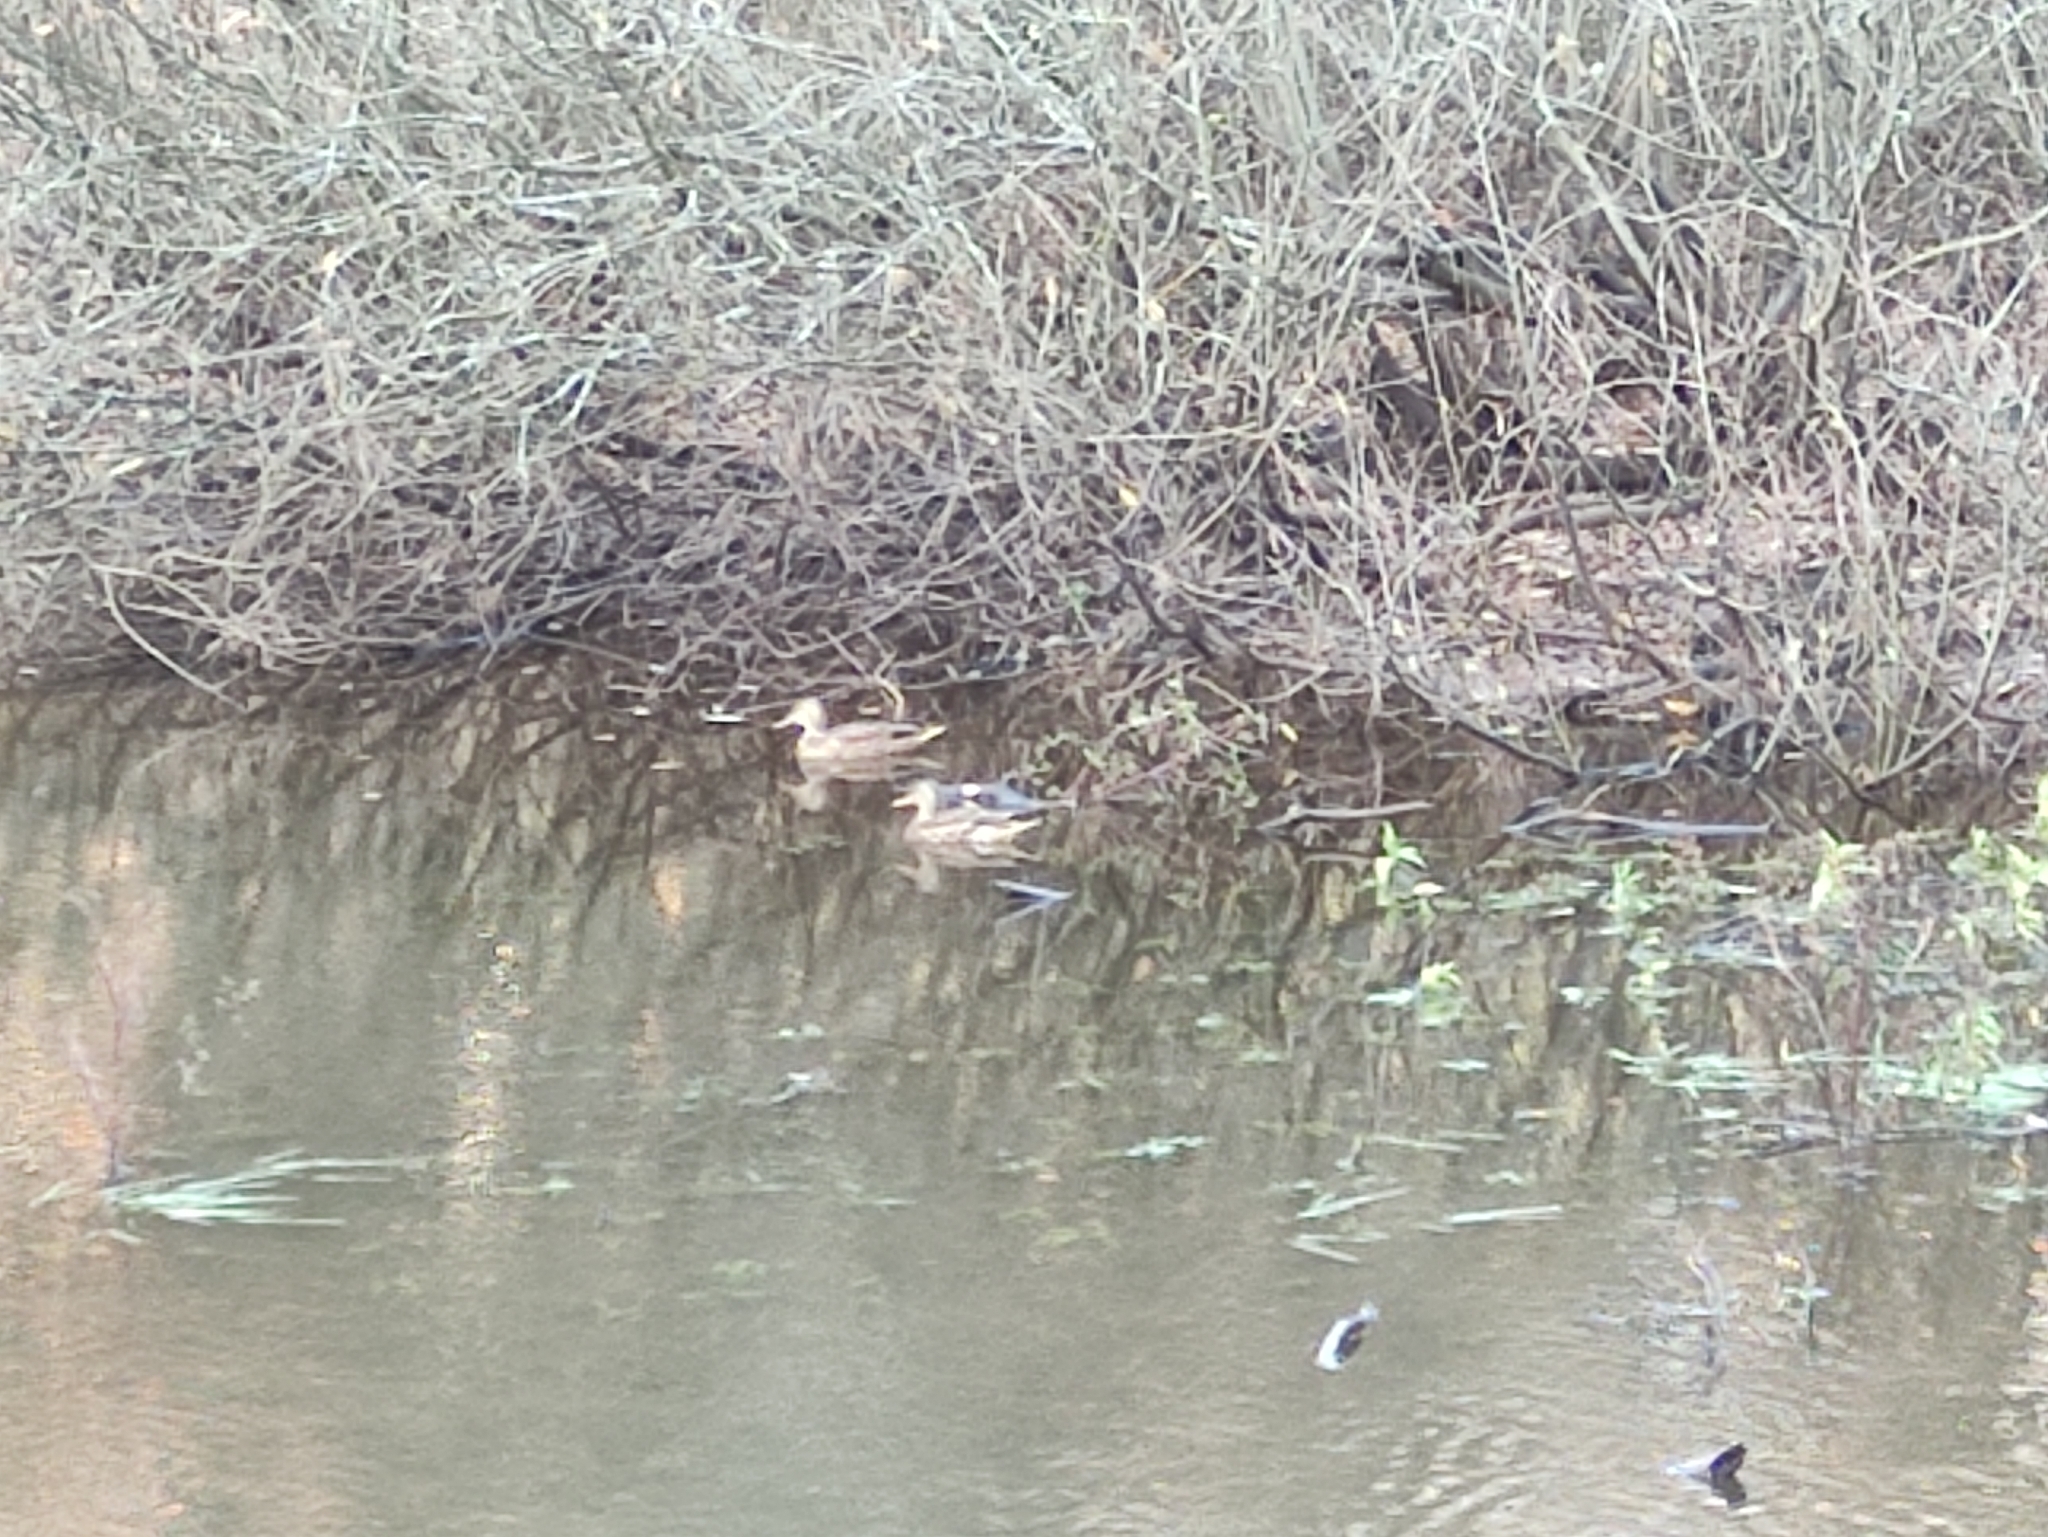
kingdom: Animalia
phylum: Chordata
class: Aves
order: Anseriformes
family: Anatidae
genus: Anas
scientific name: Anas platyrhynchos
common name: Mallard
